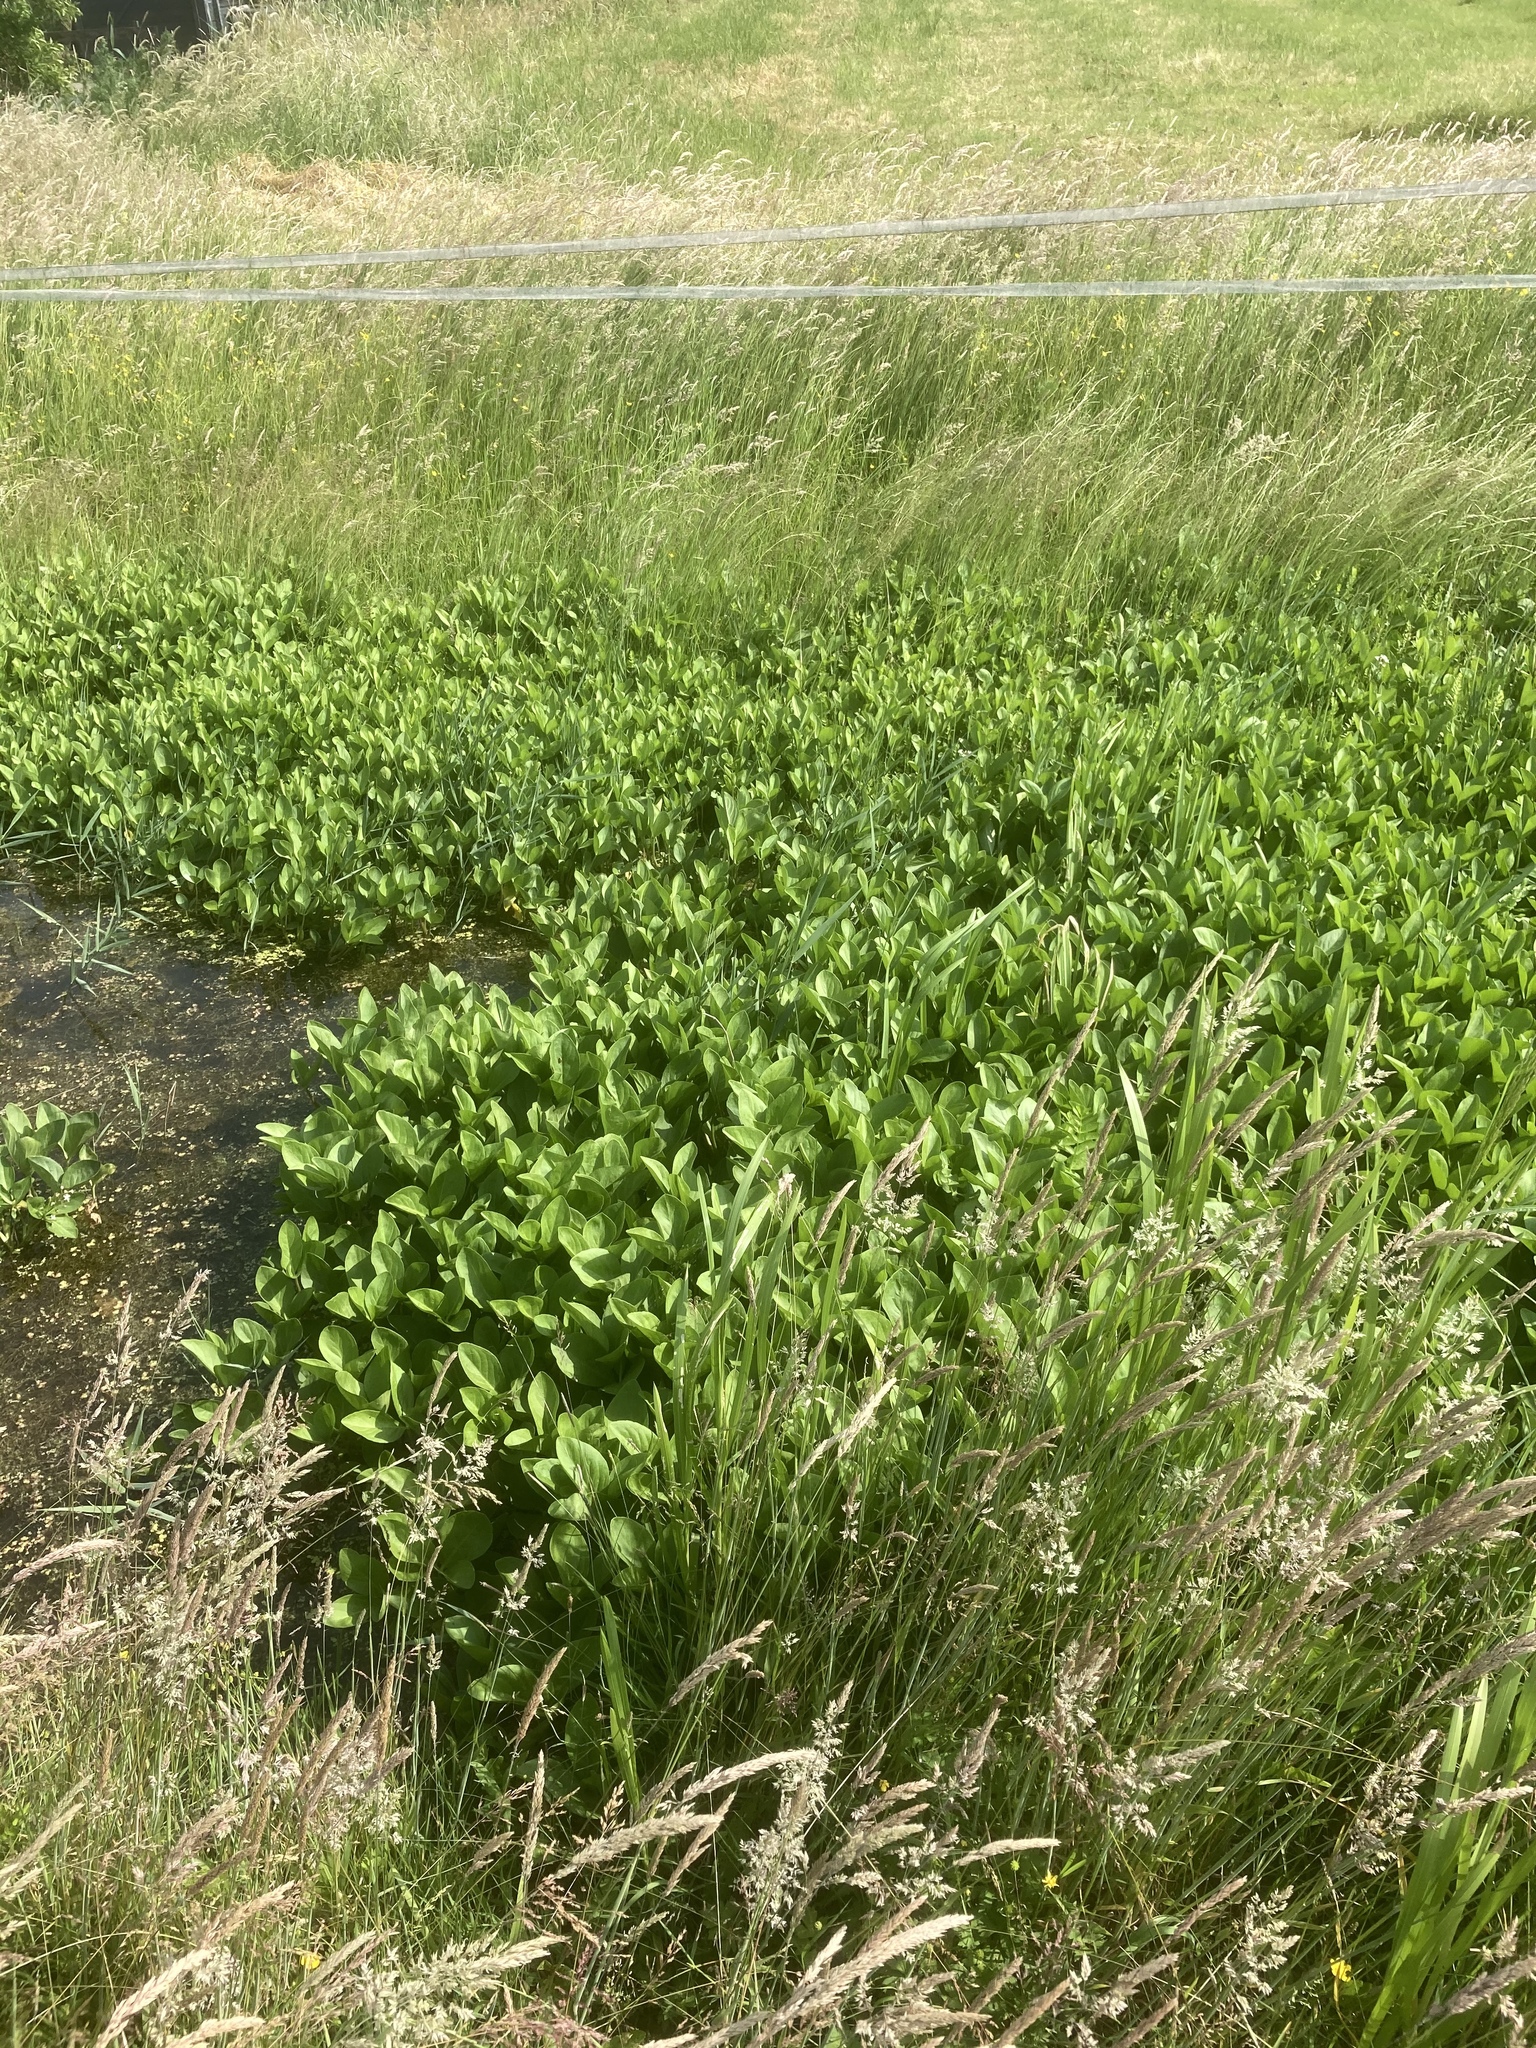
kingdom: Plantae
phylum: Tracheophyta
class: Magnoliopsida
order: Asterales
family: Menyanthaceae
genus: Menyanthes
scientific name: Menyanthes trifoliata
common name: Bogbean
